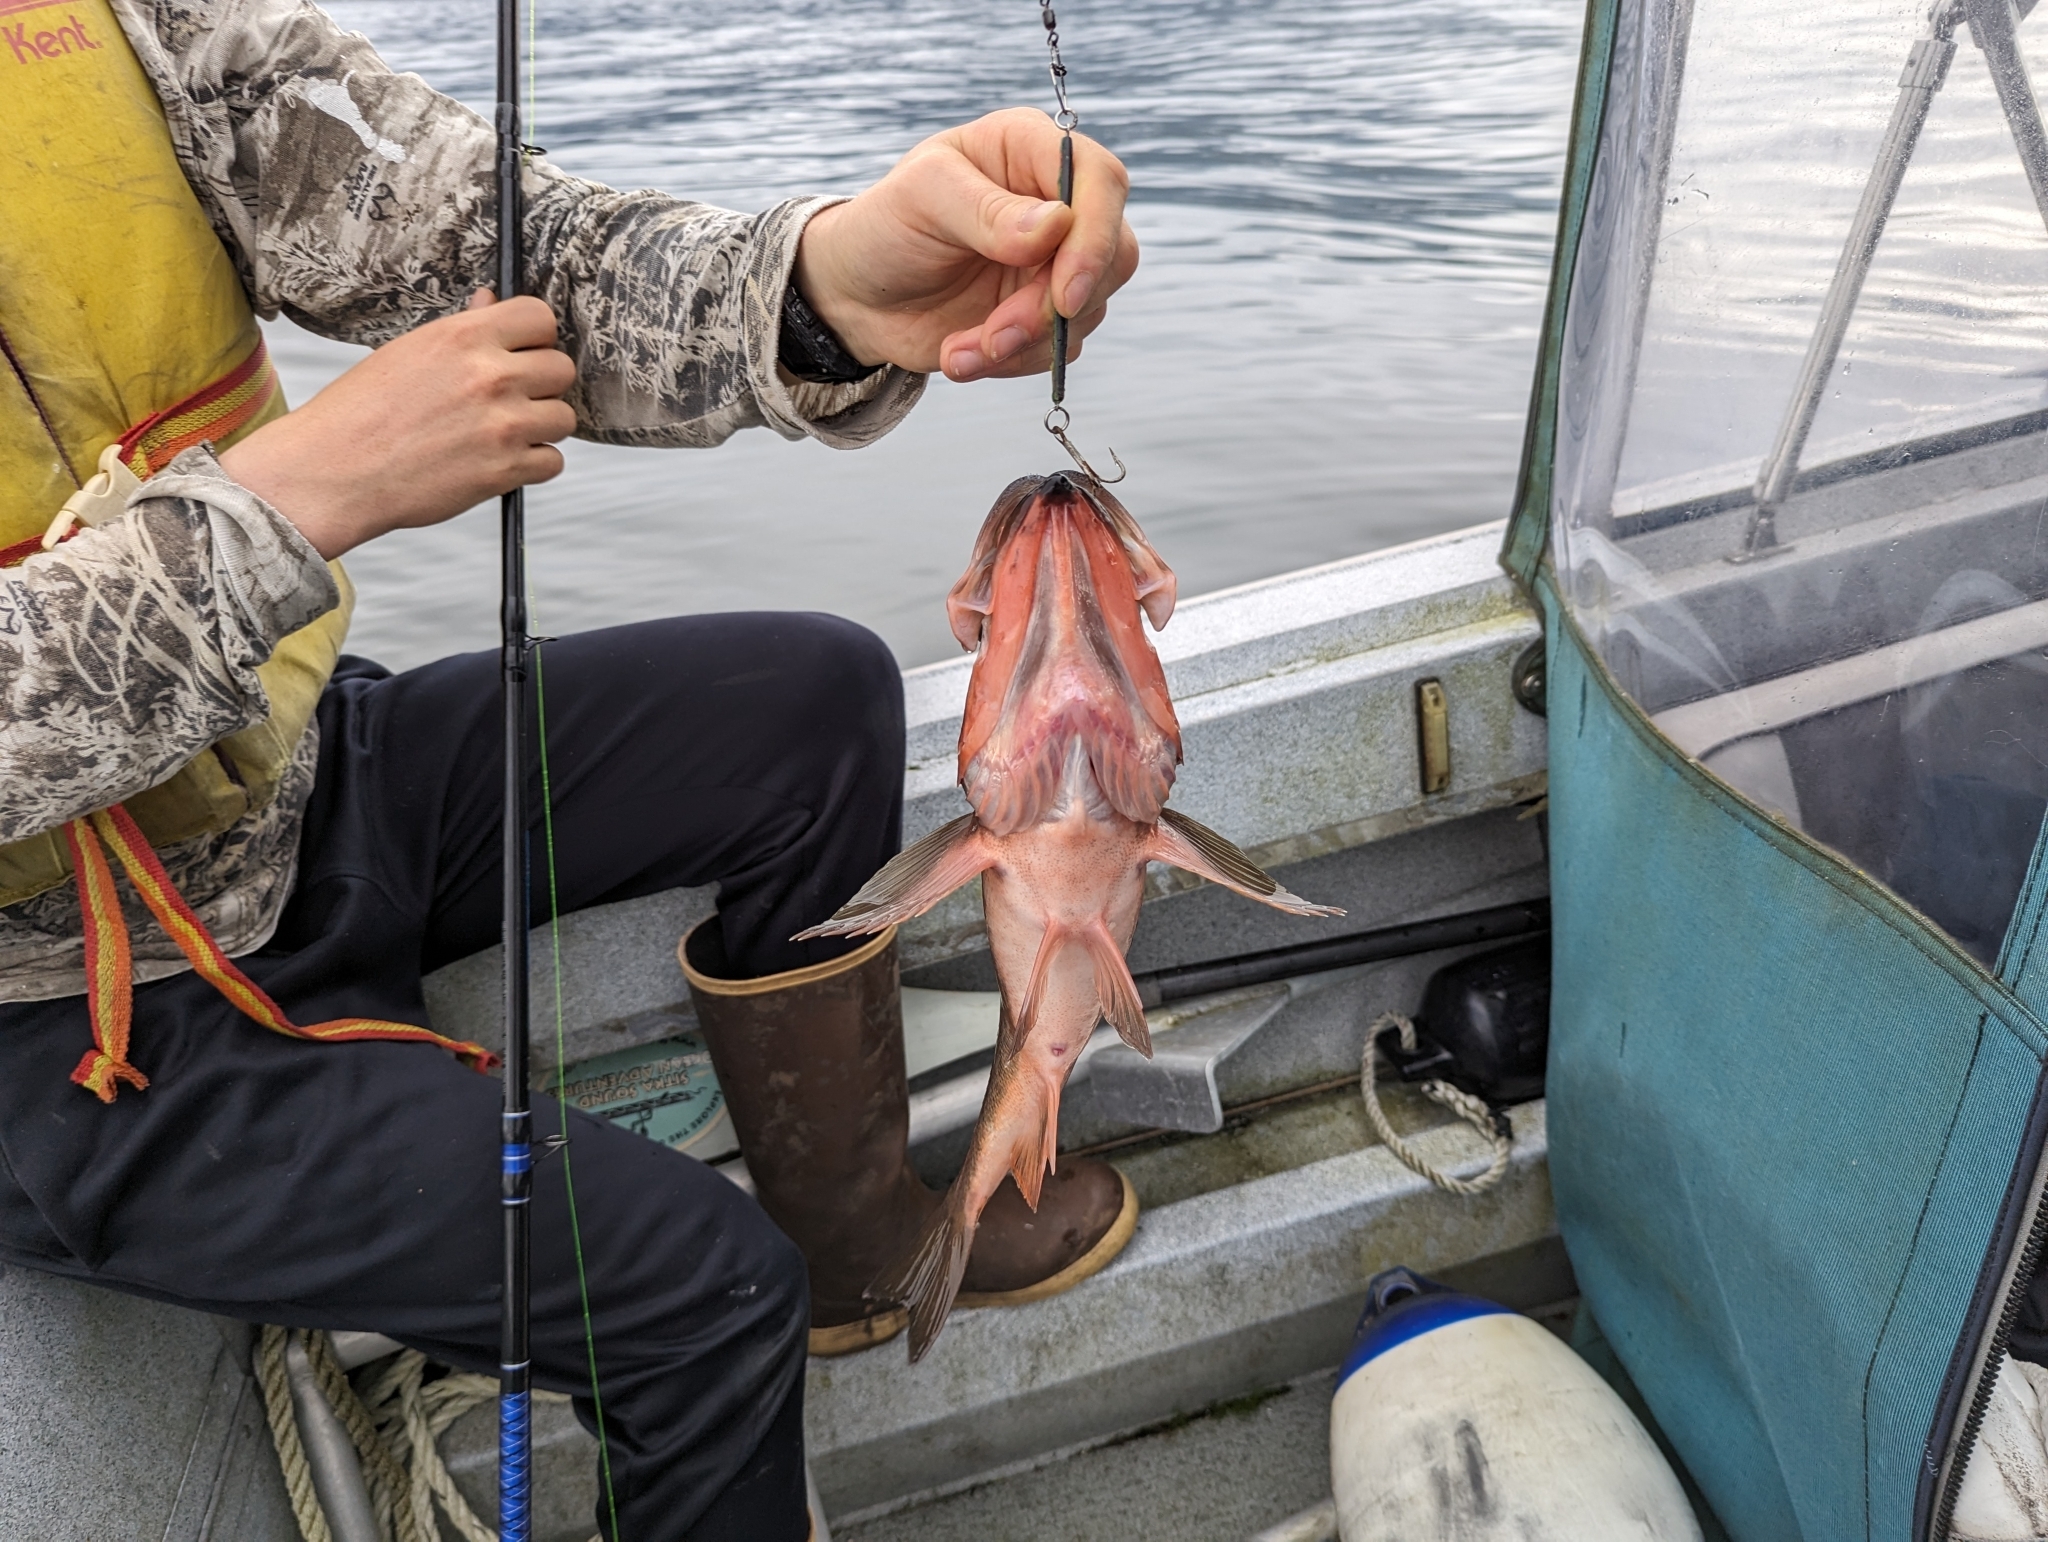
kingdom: Animalia
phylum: Chordata
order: Scorpaeniformes
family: Sebastidae
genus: Sebastes
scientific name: Sebastes brevispinis
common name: Silvergray rockfish
